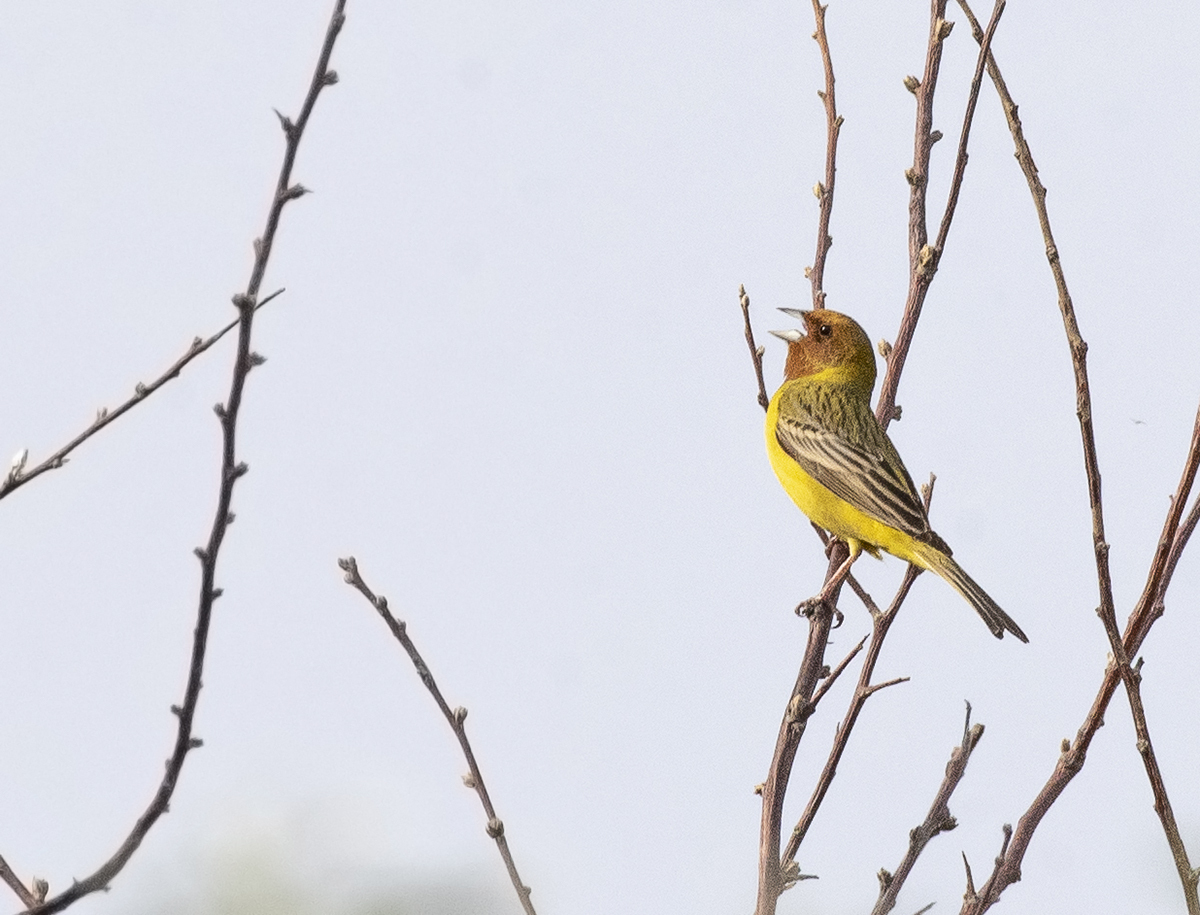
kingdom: Animalia
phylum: Chordata
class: Aves
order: Passeriformes
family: Emberizidae
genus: Emberiza
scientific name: Emberiza bruniceps
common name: Red-headed bunting
